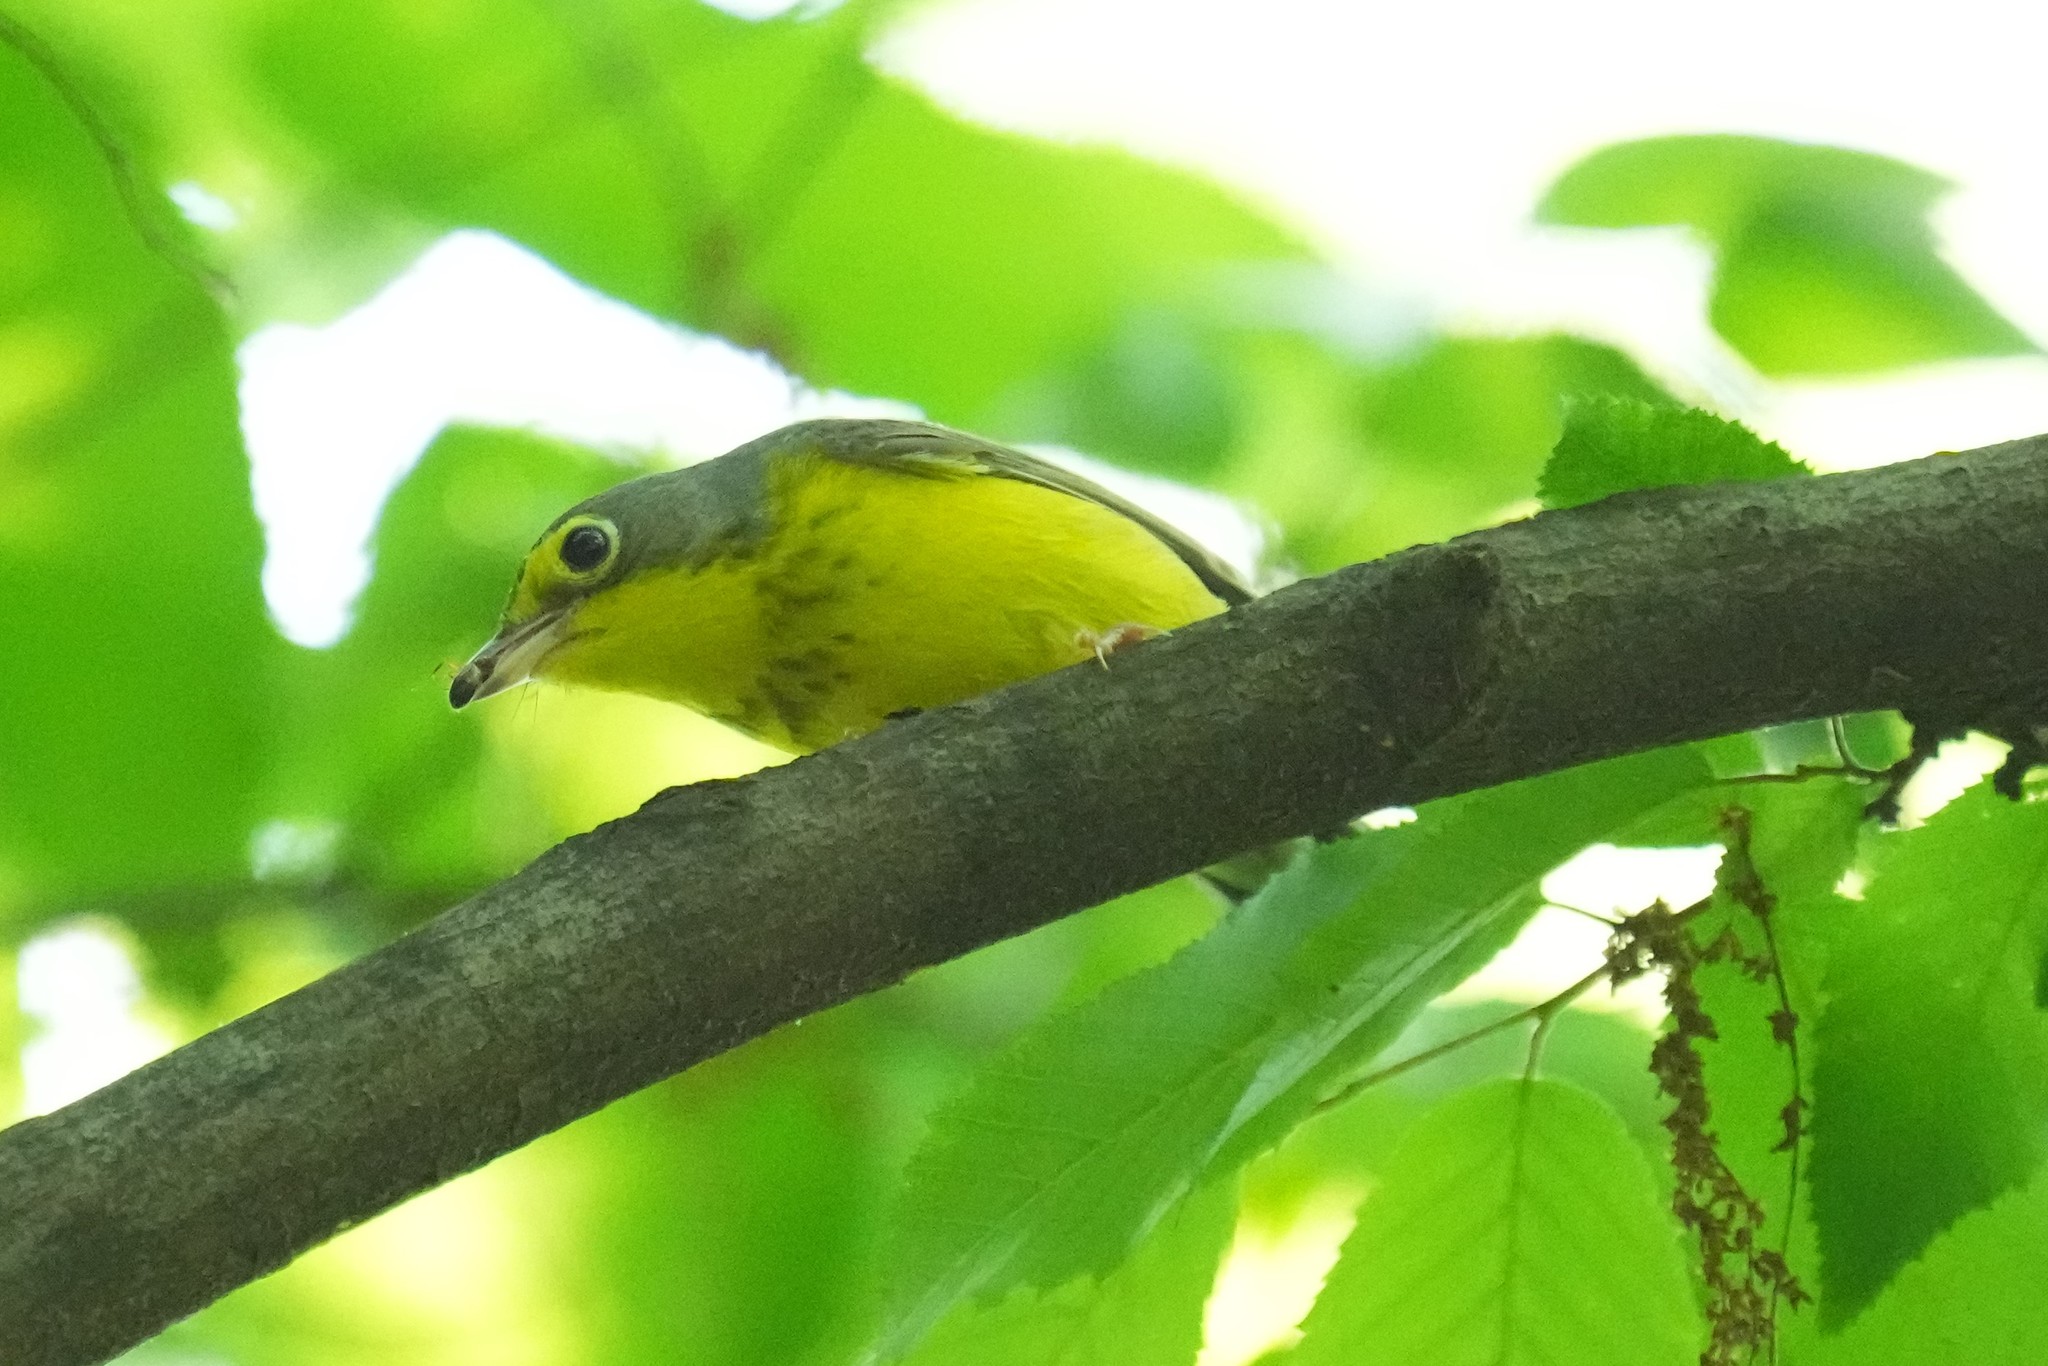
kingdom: Animalia
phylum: Chordata
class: Aves
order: Passeriformes
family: Parulidae
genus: Cardellina
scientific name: Cardellina canadensis
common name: Canada warbler
